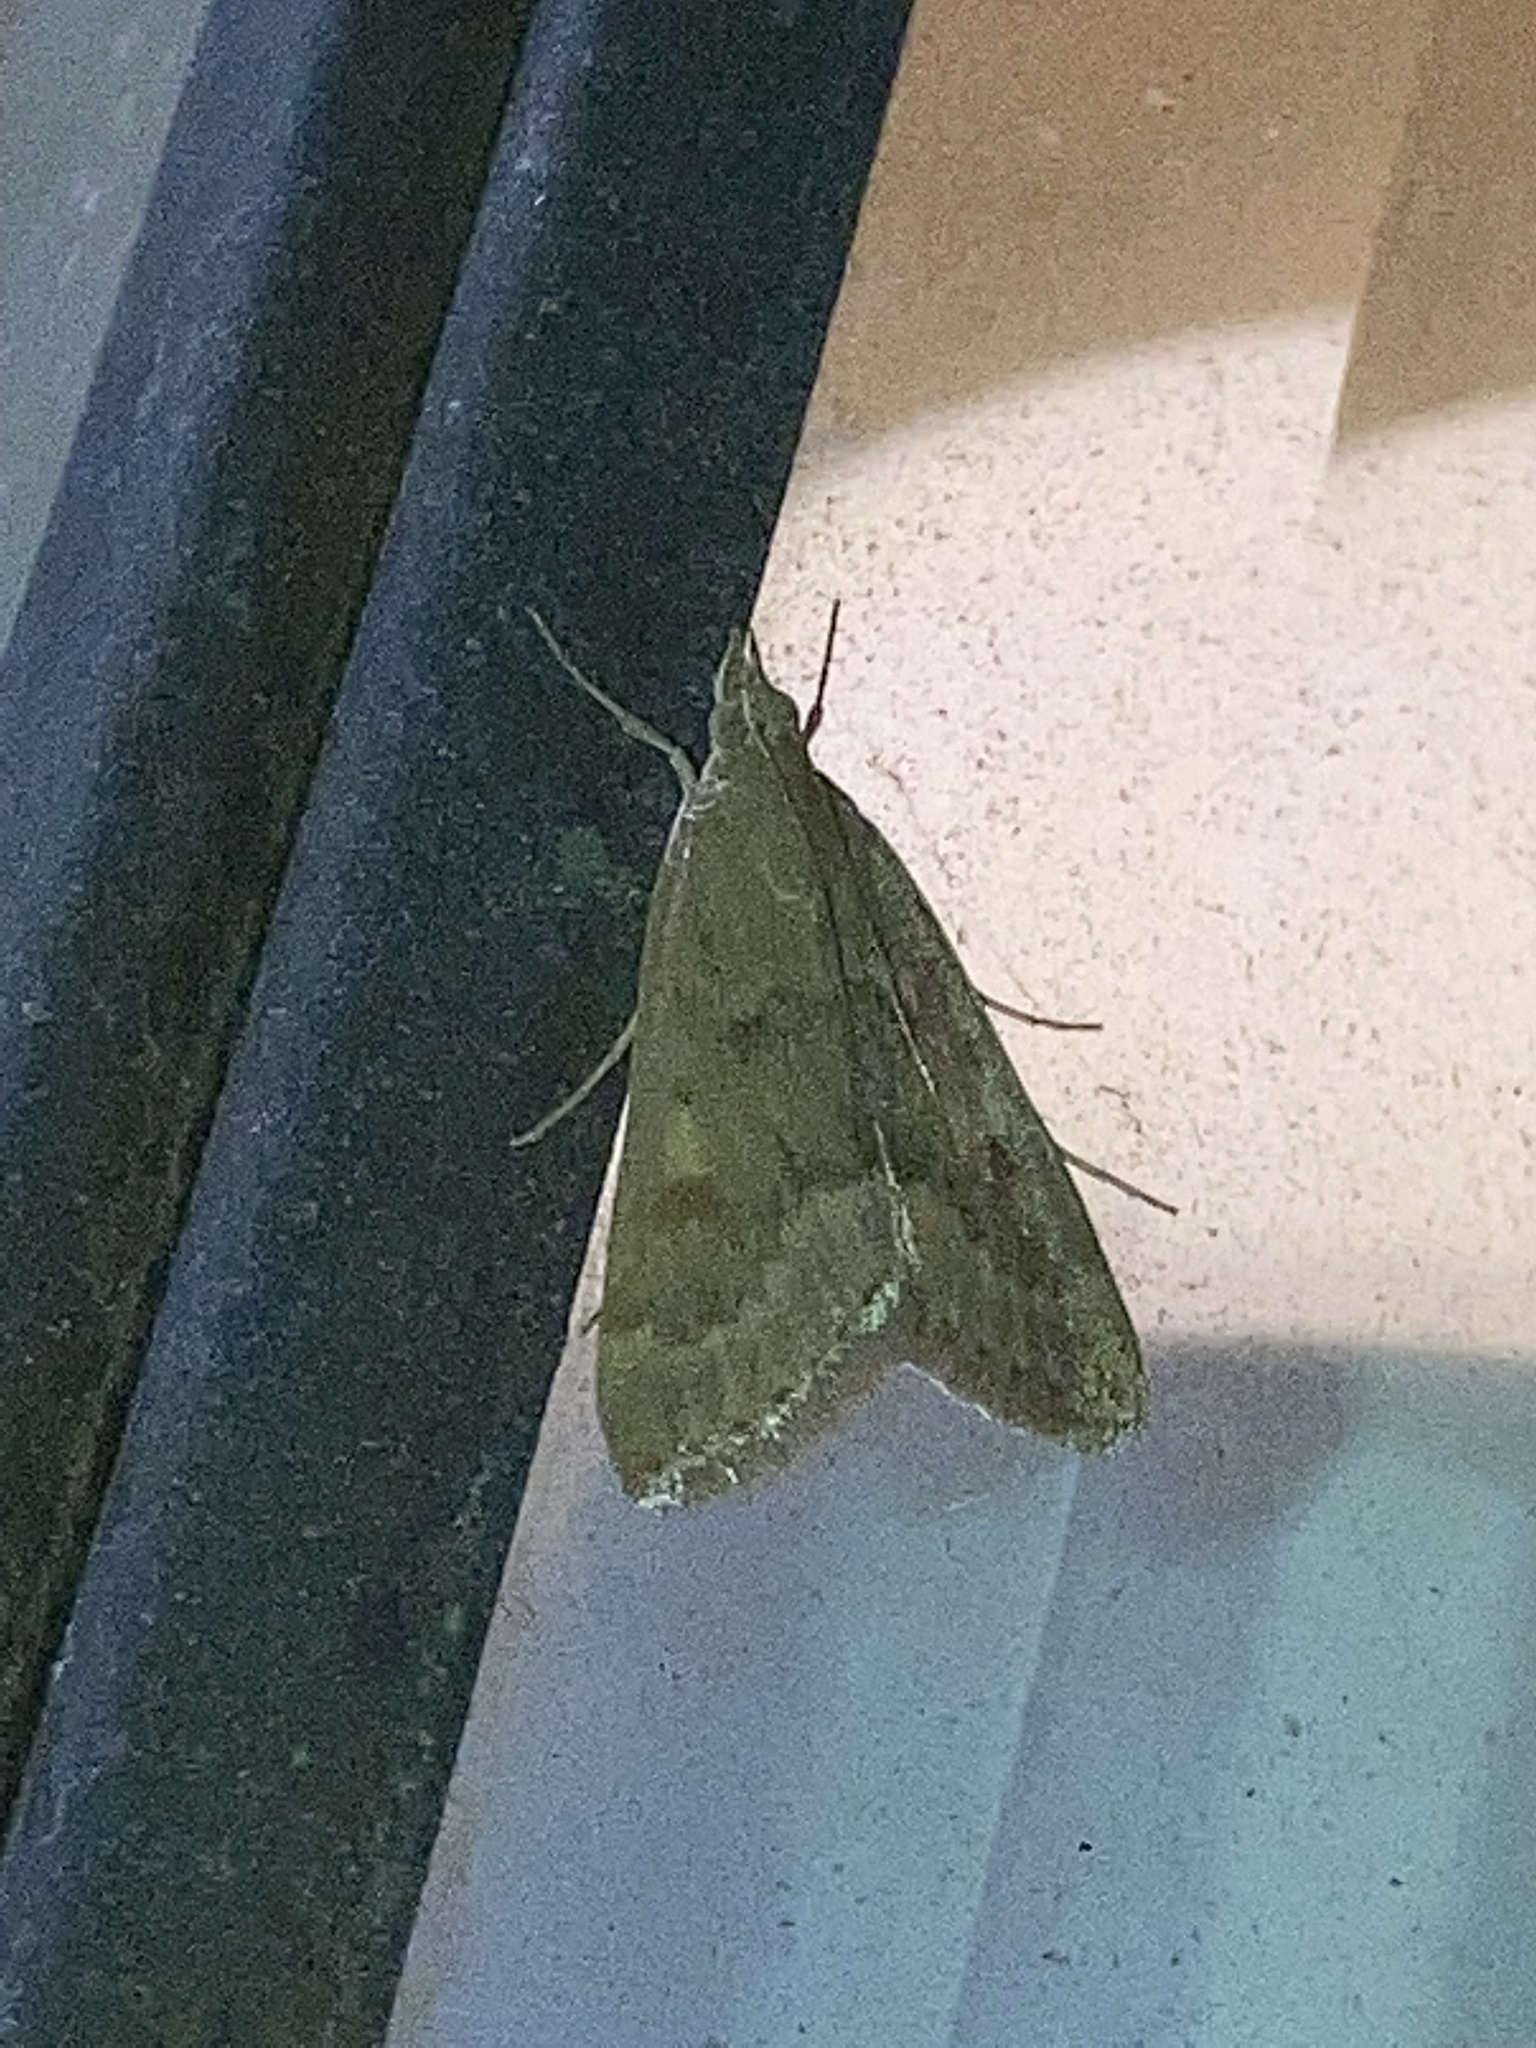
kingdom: Animalia
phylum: Arthropoda
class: Insecta
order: Lepidoptera
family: Crambidae
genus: Achyra
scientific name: Achyra rantalis
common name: Garden webworm
